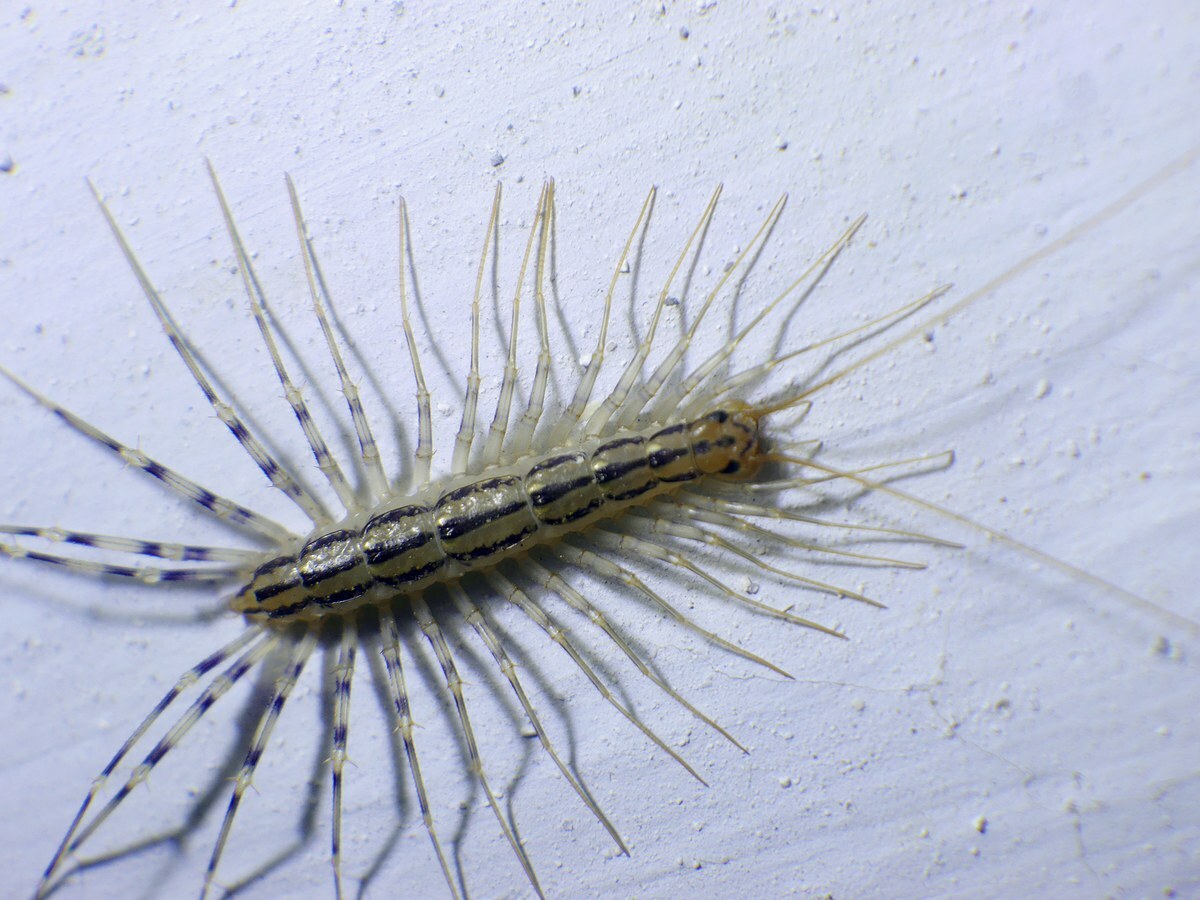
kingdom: Animalia
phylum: Arthropoda
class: Chilopoda
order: Scutigeromorpha
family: Scutigeridae
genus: Scutigera
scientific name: Scutigera coleoptrata
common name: House centipede
